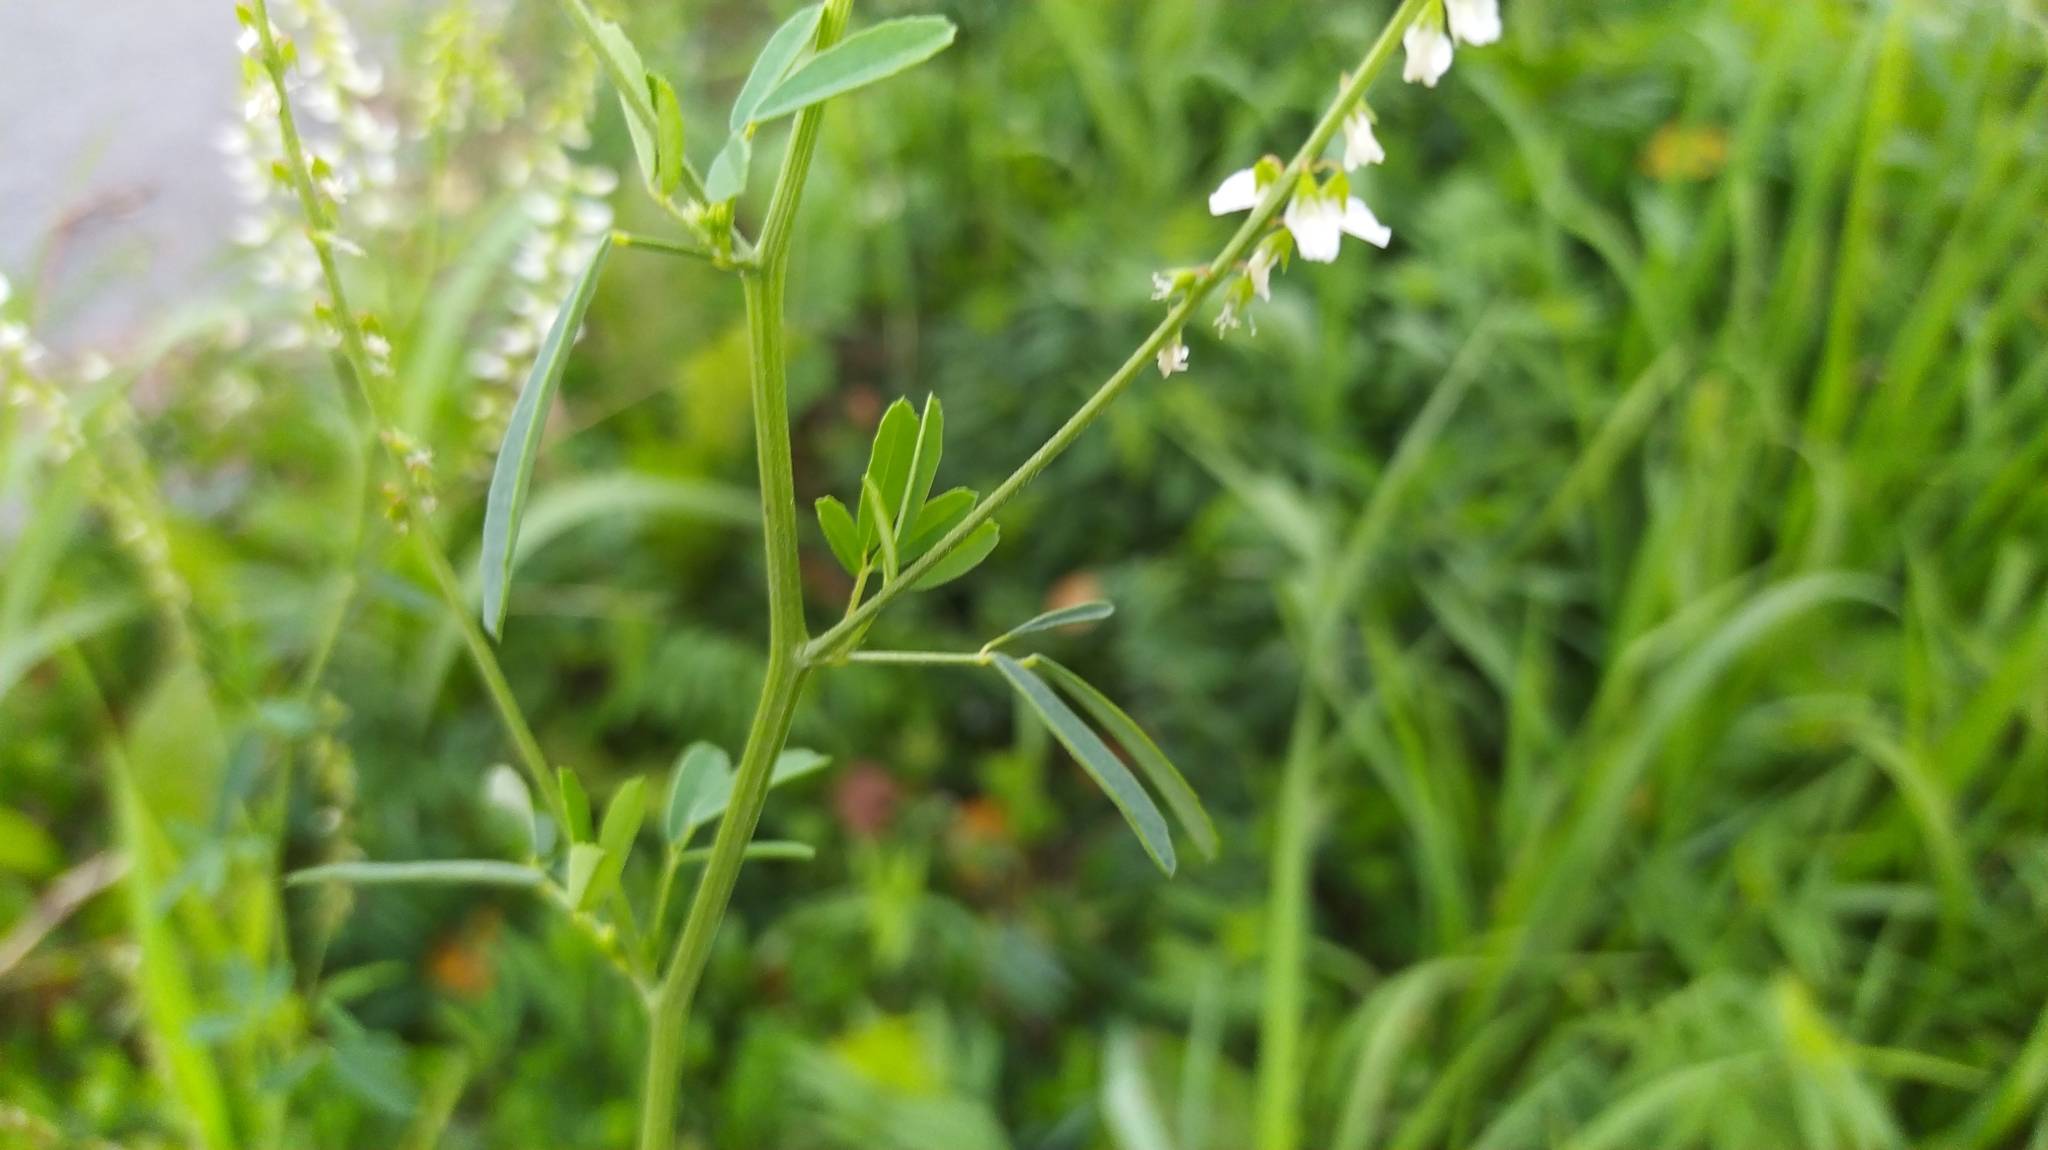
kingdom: Plantae
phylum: Tracheophyta
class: Magnoliopsida
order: Fabales
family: Fabaceae
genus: Melilotus
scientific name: Melilotus albus
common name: White melilot
